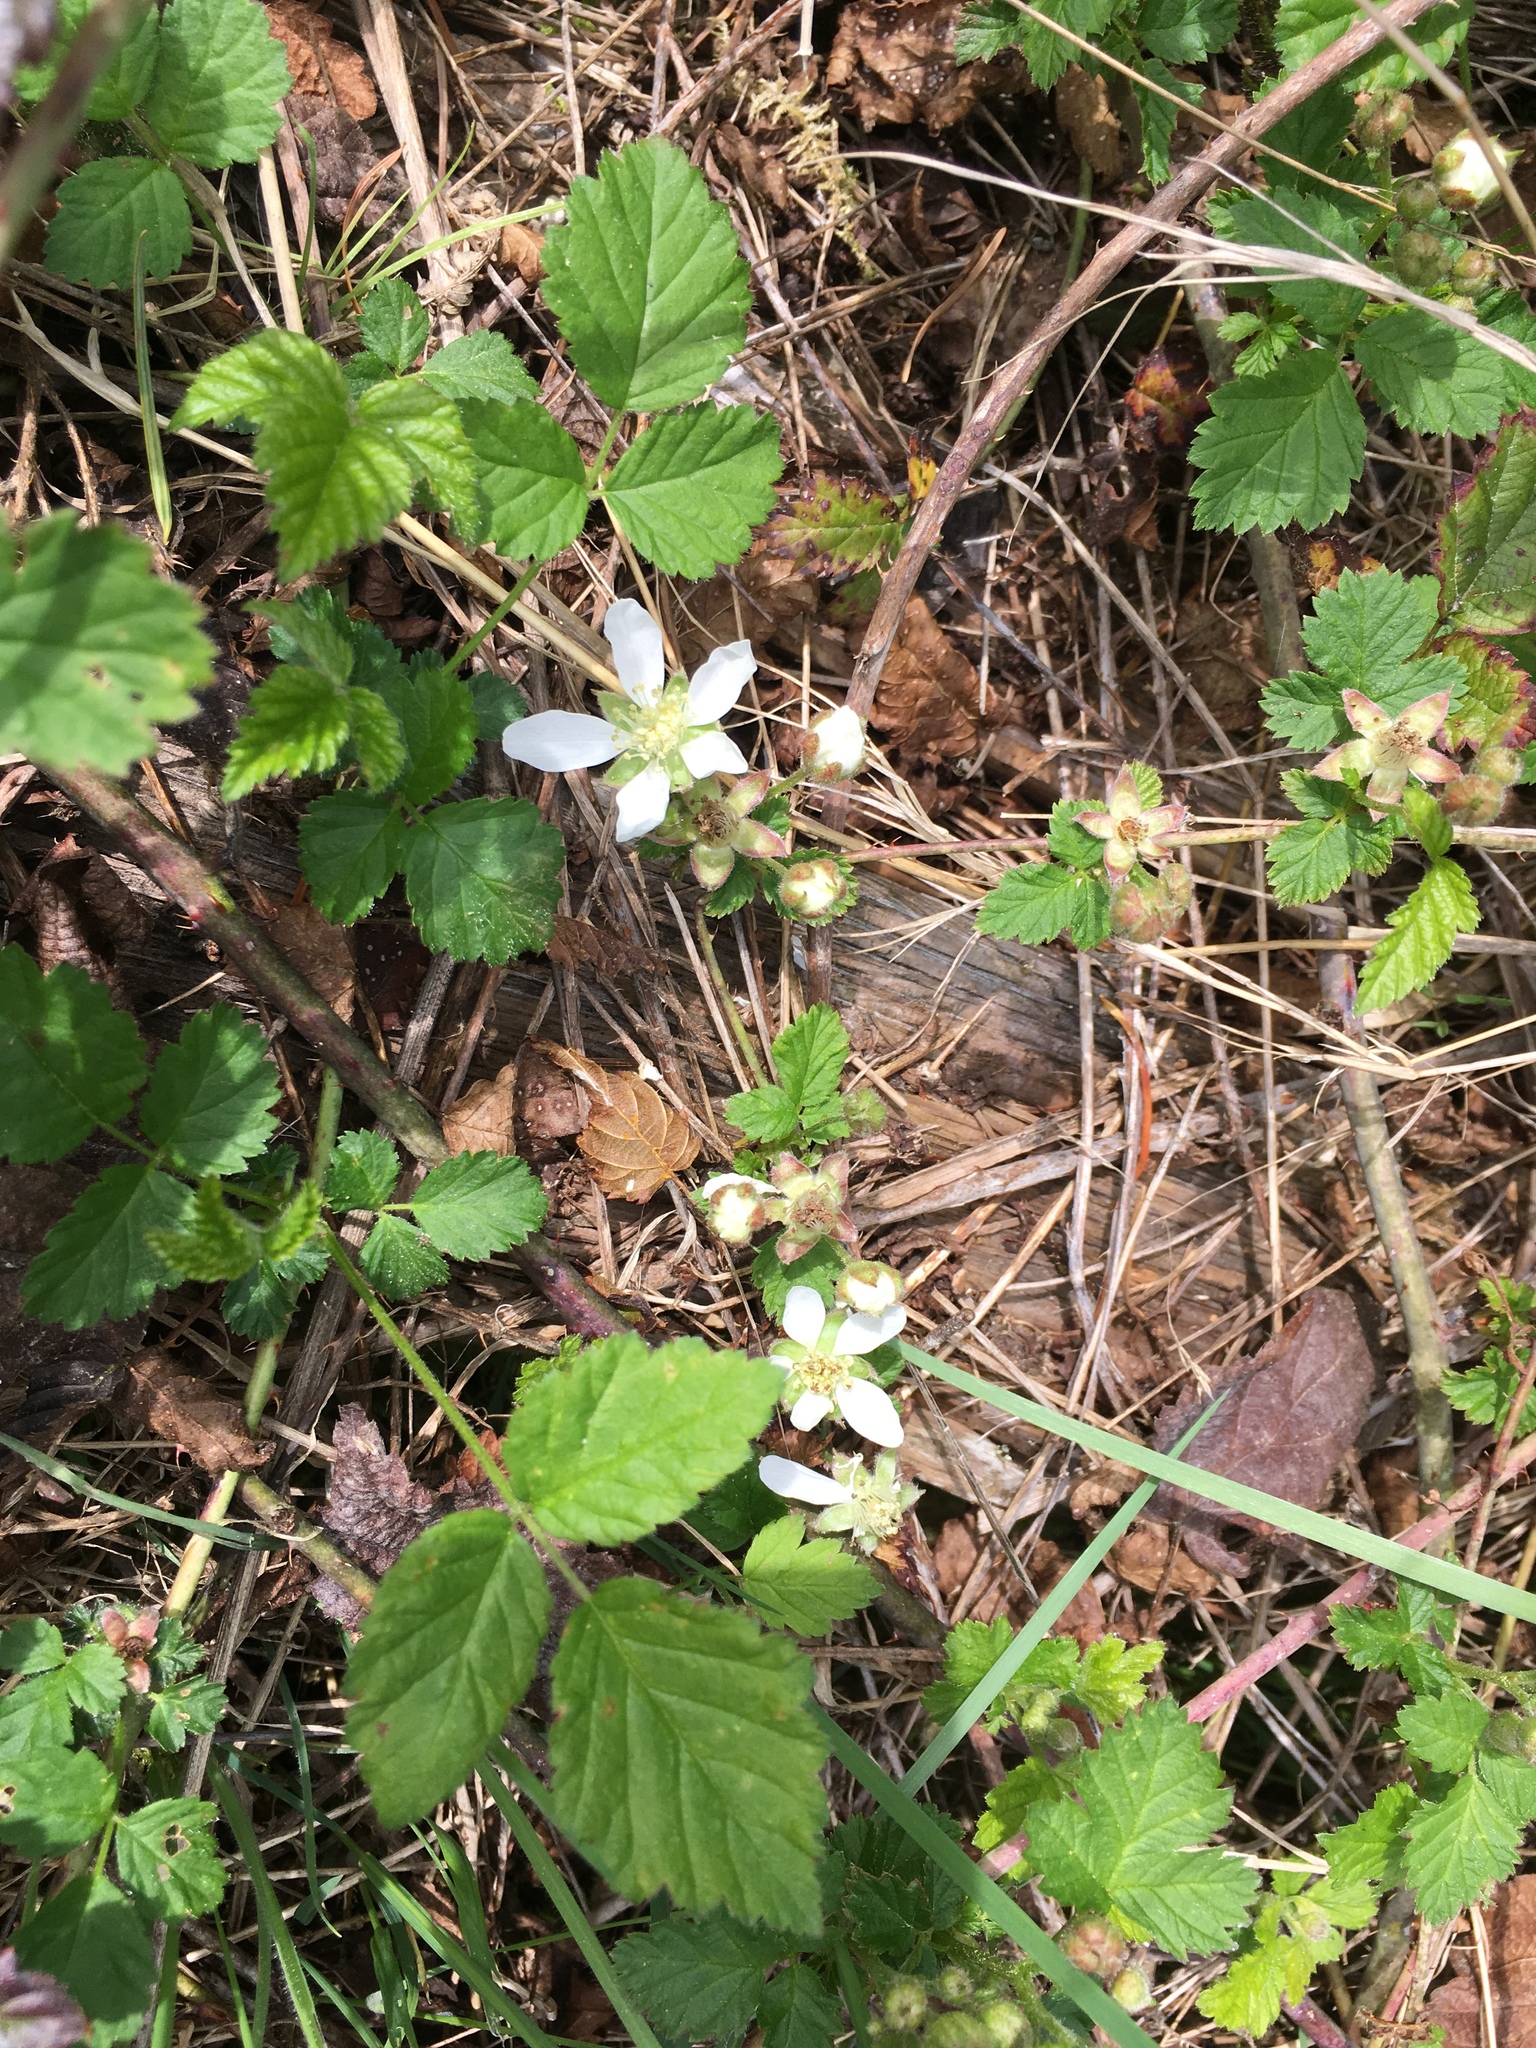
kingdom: Plantae
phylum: Tracheophyta
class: Magnoliopsida
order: Rosales
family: Rosaceae
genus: Rubus
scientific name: Rubus ursinus
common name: Pacific blackberry
